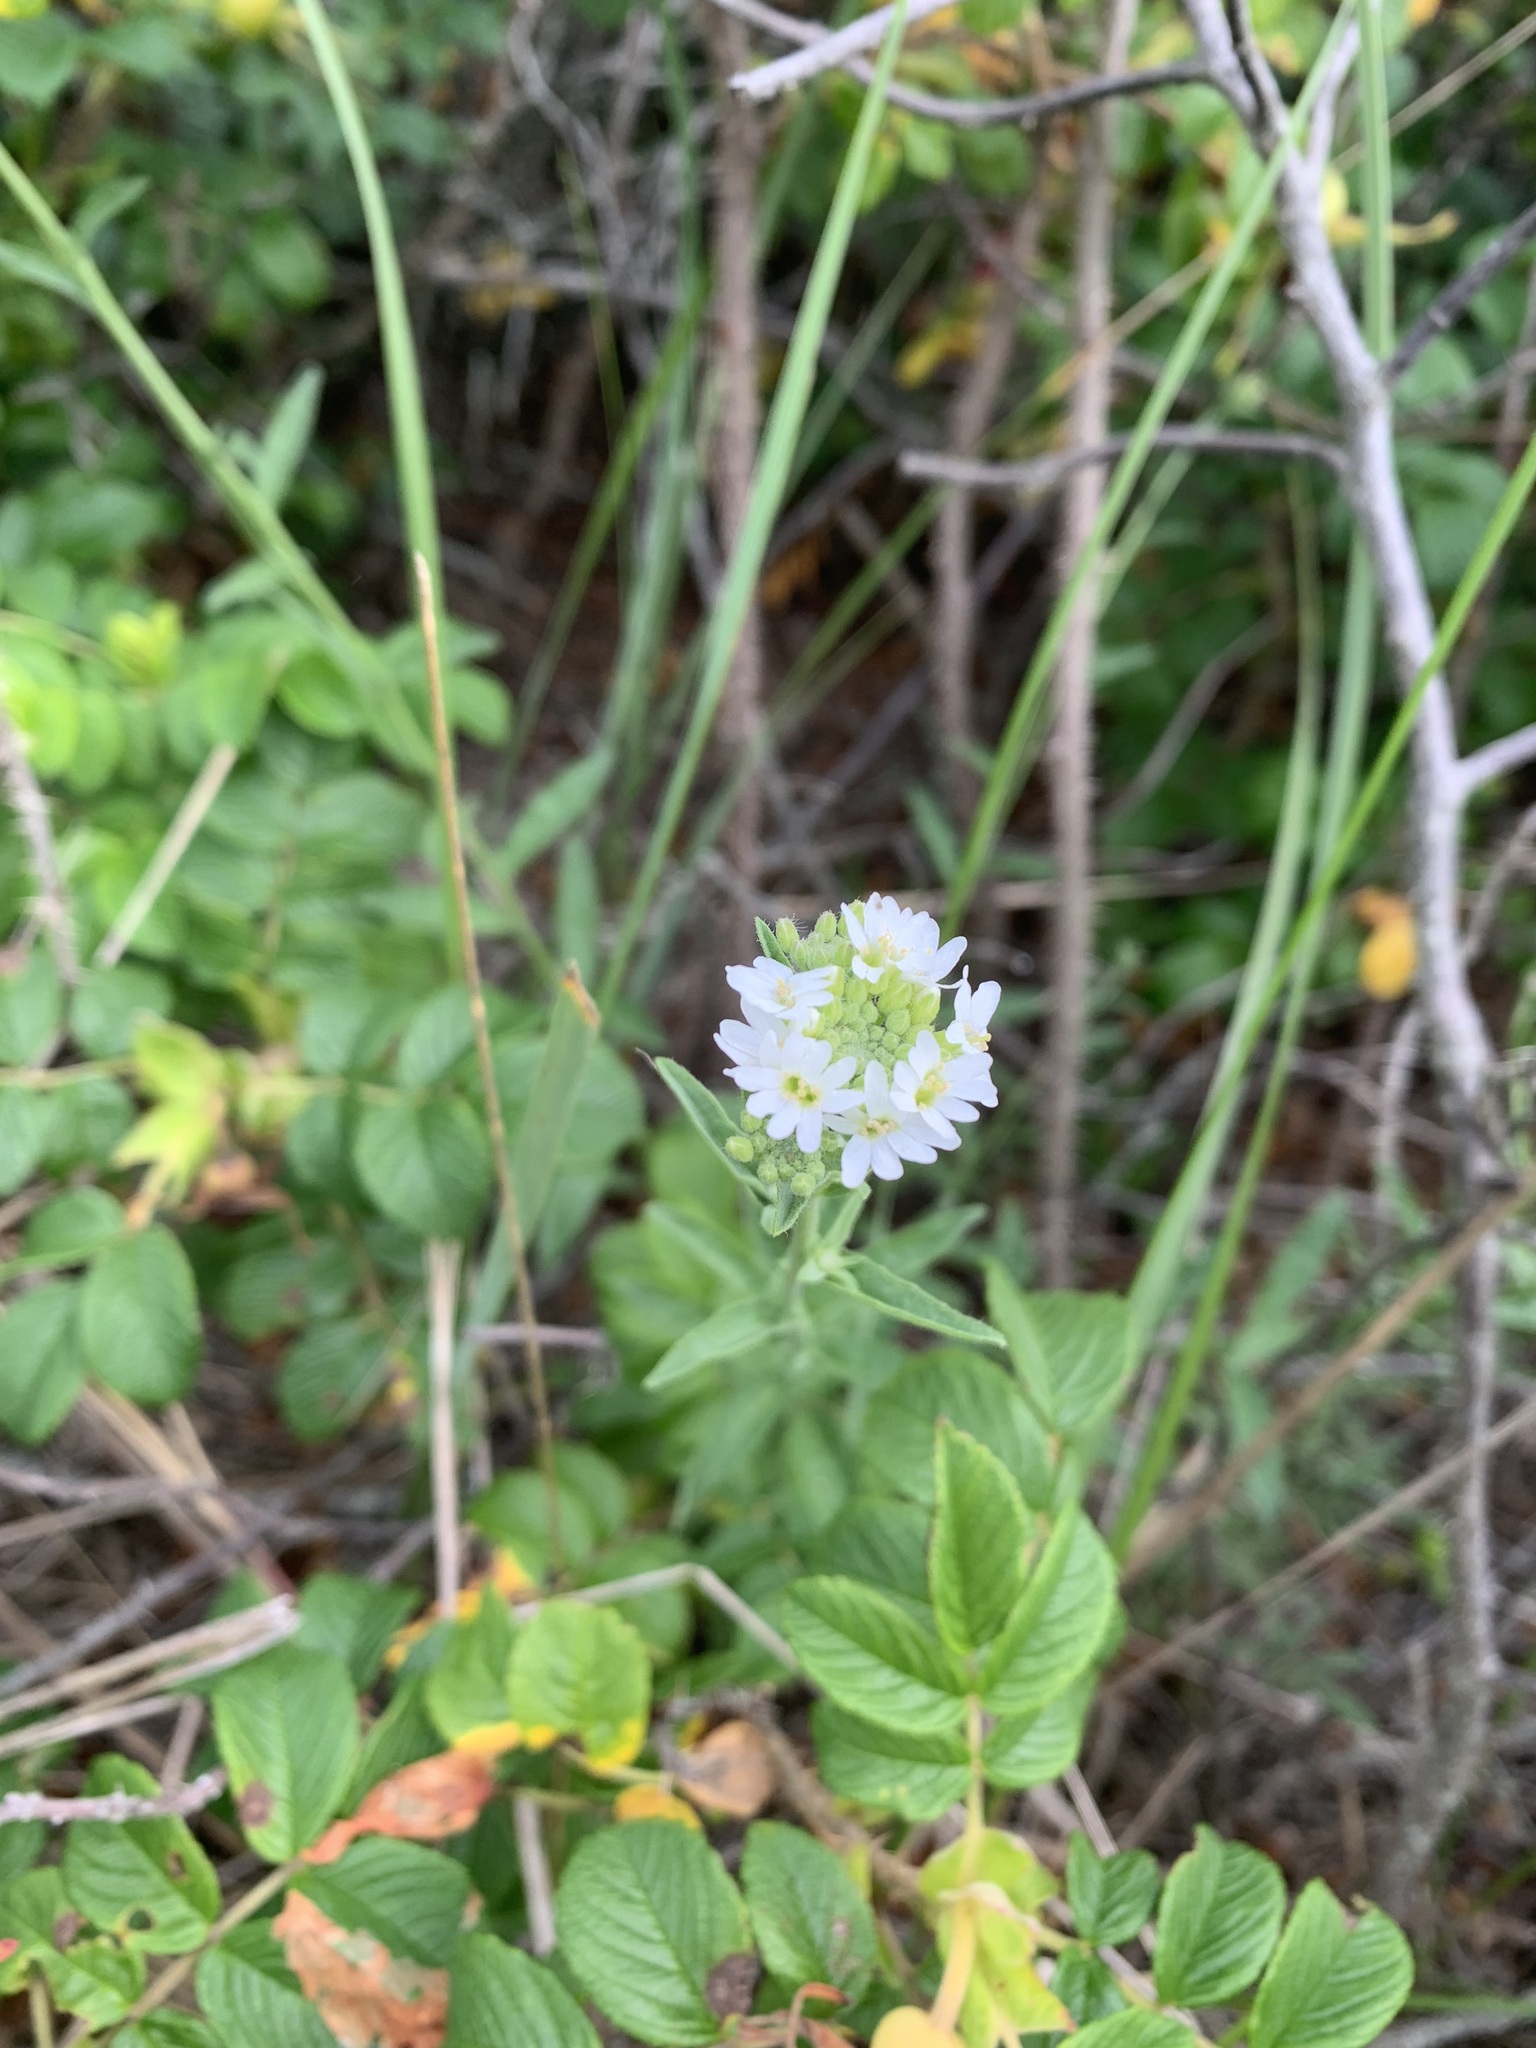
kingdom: Plantae
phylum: Tracheophyta
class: Magnoliopsida
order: Brassicales
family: Brassicaceae
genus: Berteroa
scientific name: Berteroa incana
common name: Hoary alison
